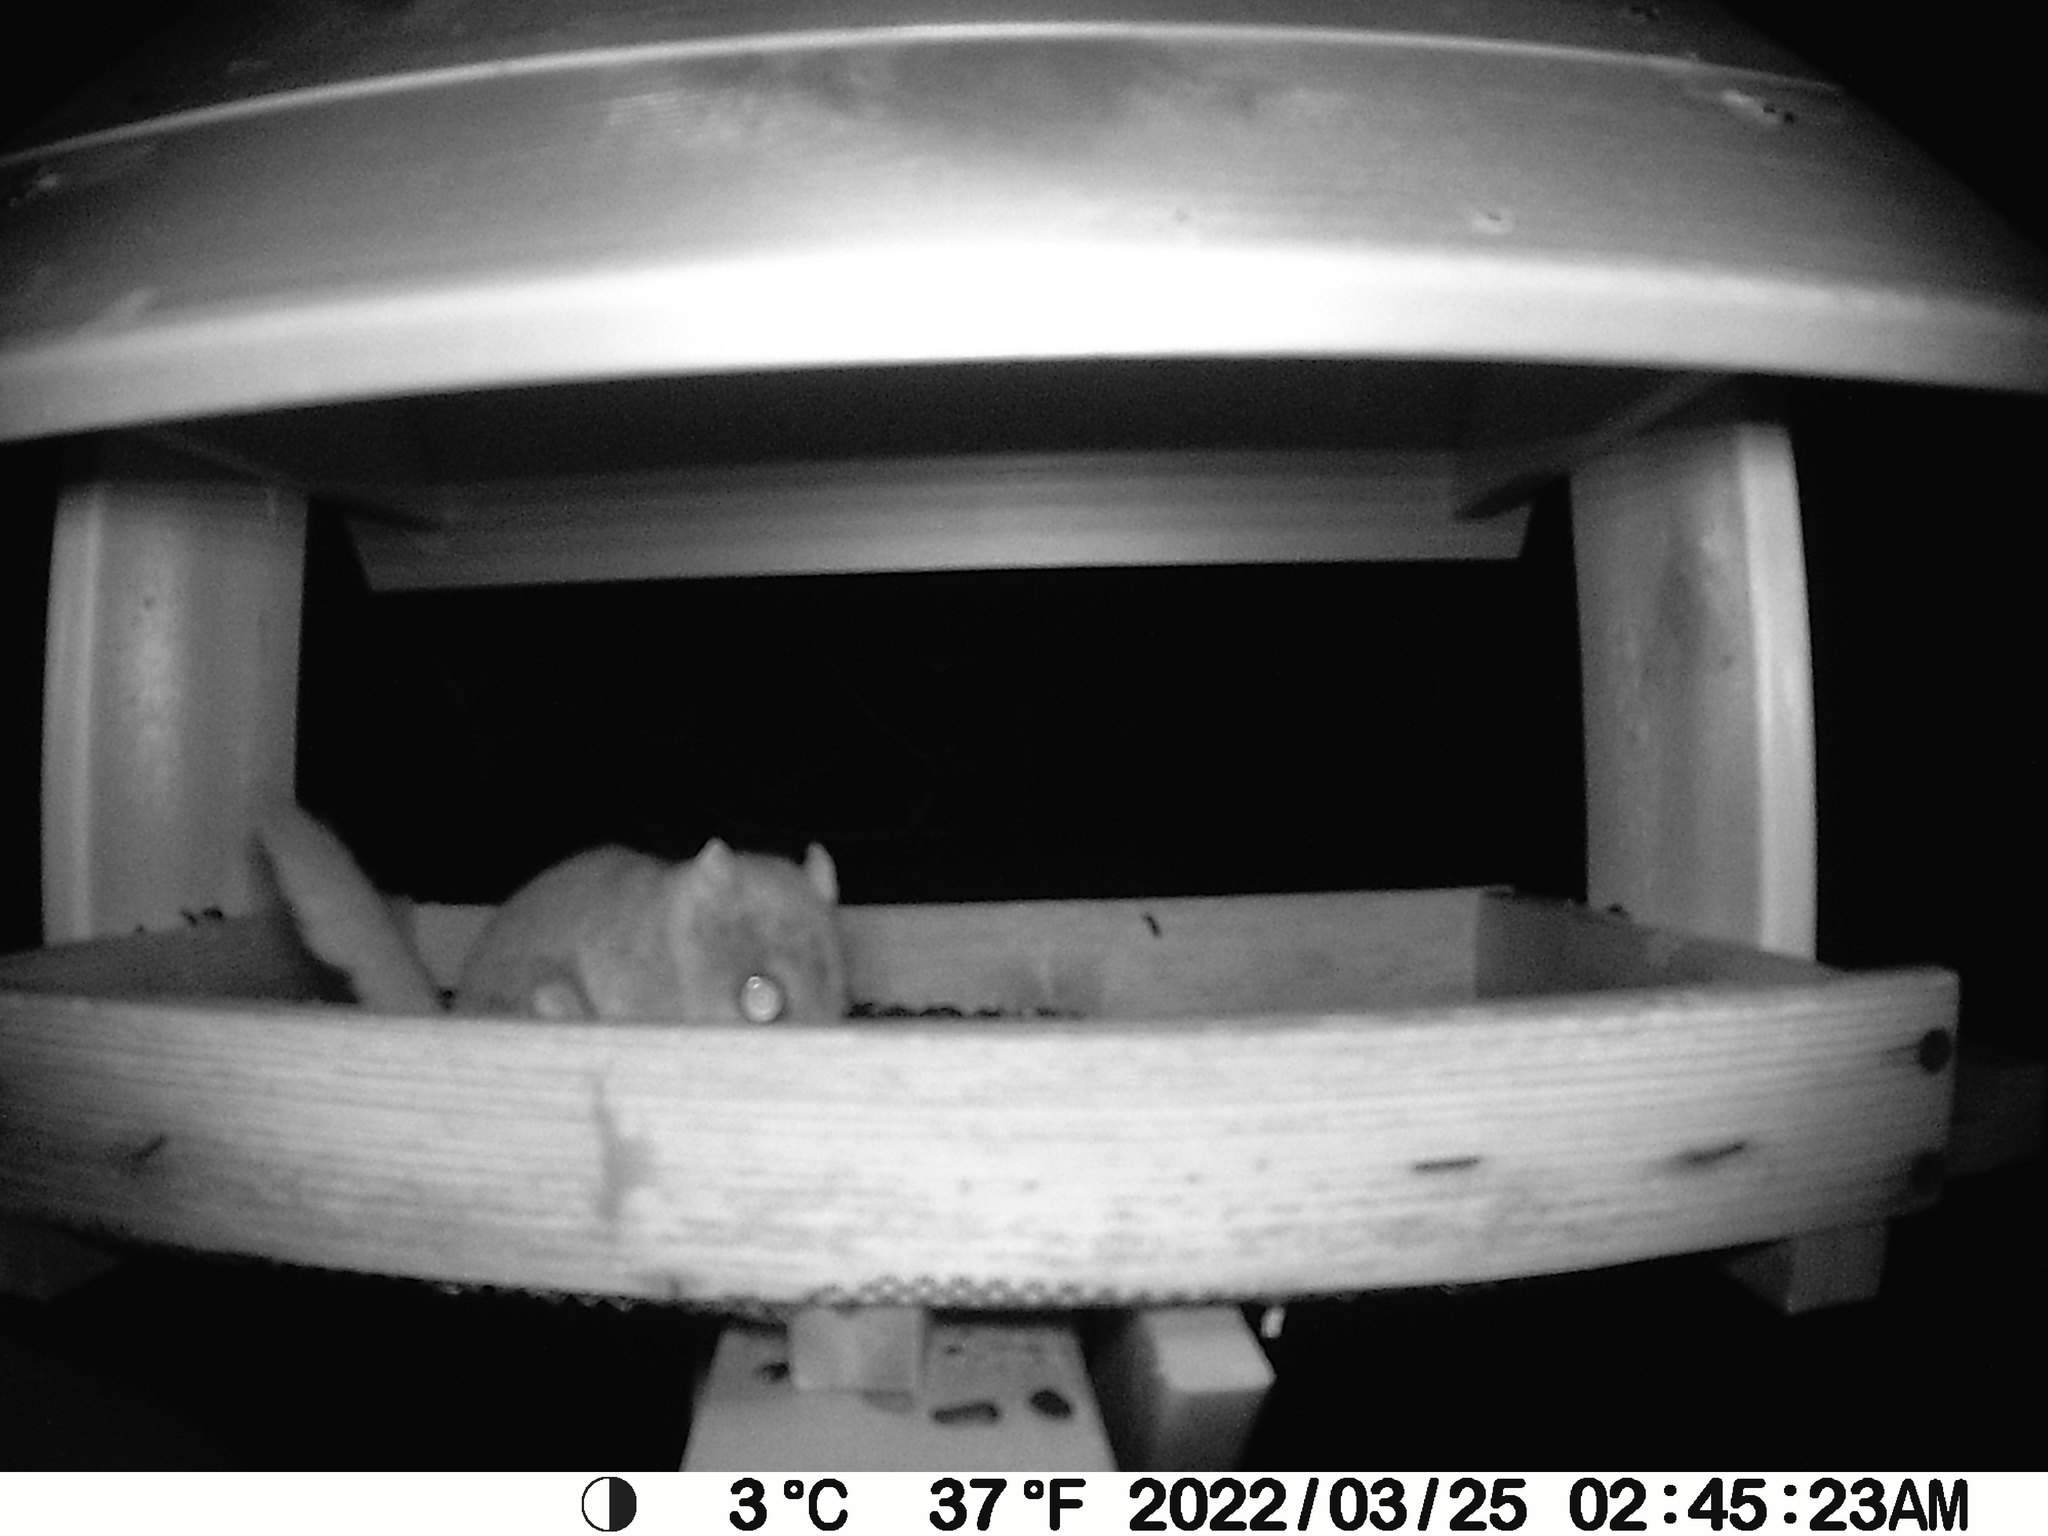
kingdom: Animalia
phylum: Chordata
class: Mammalia
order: Rodentia
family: Sciuridae
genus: Glaucomys
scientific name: Glaucomys sabrinus
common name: Northern flying squirrel
